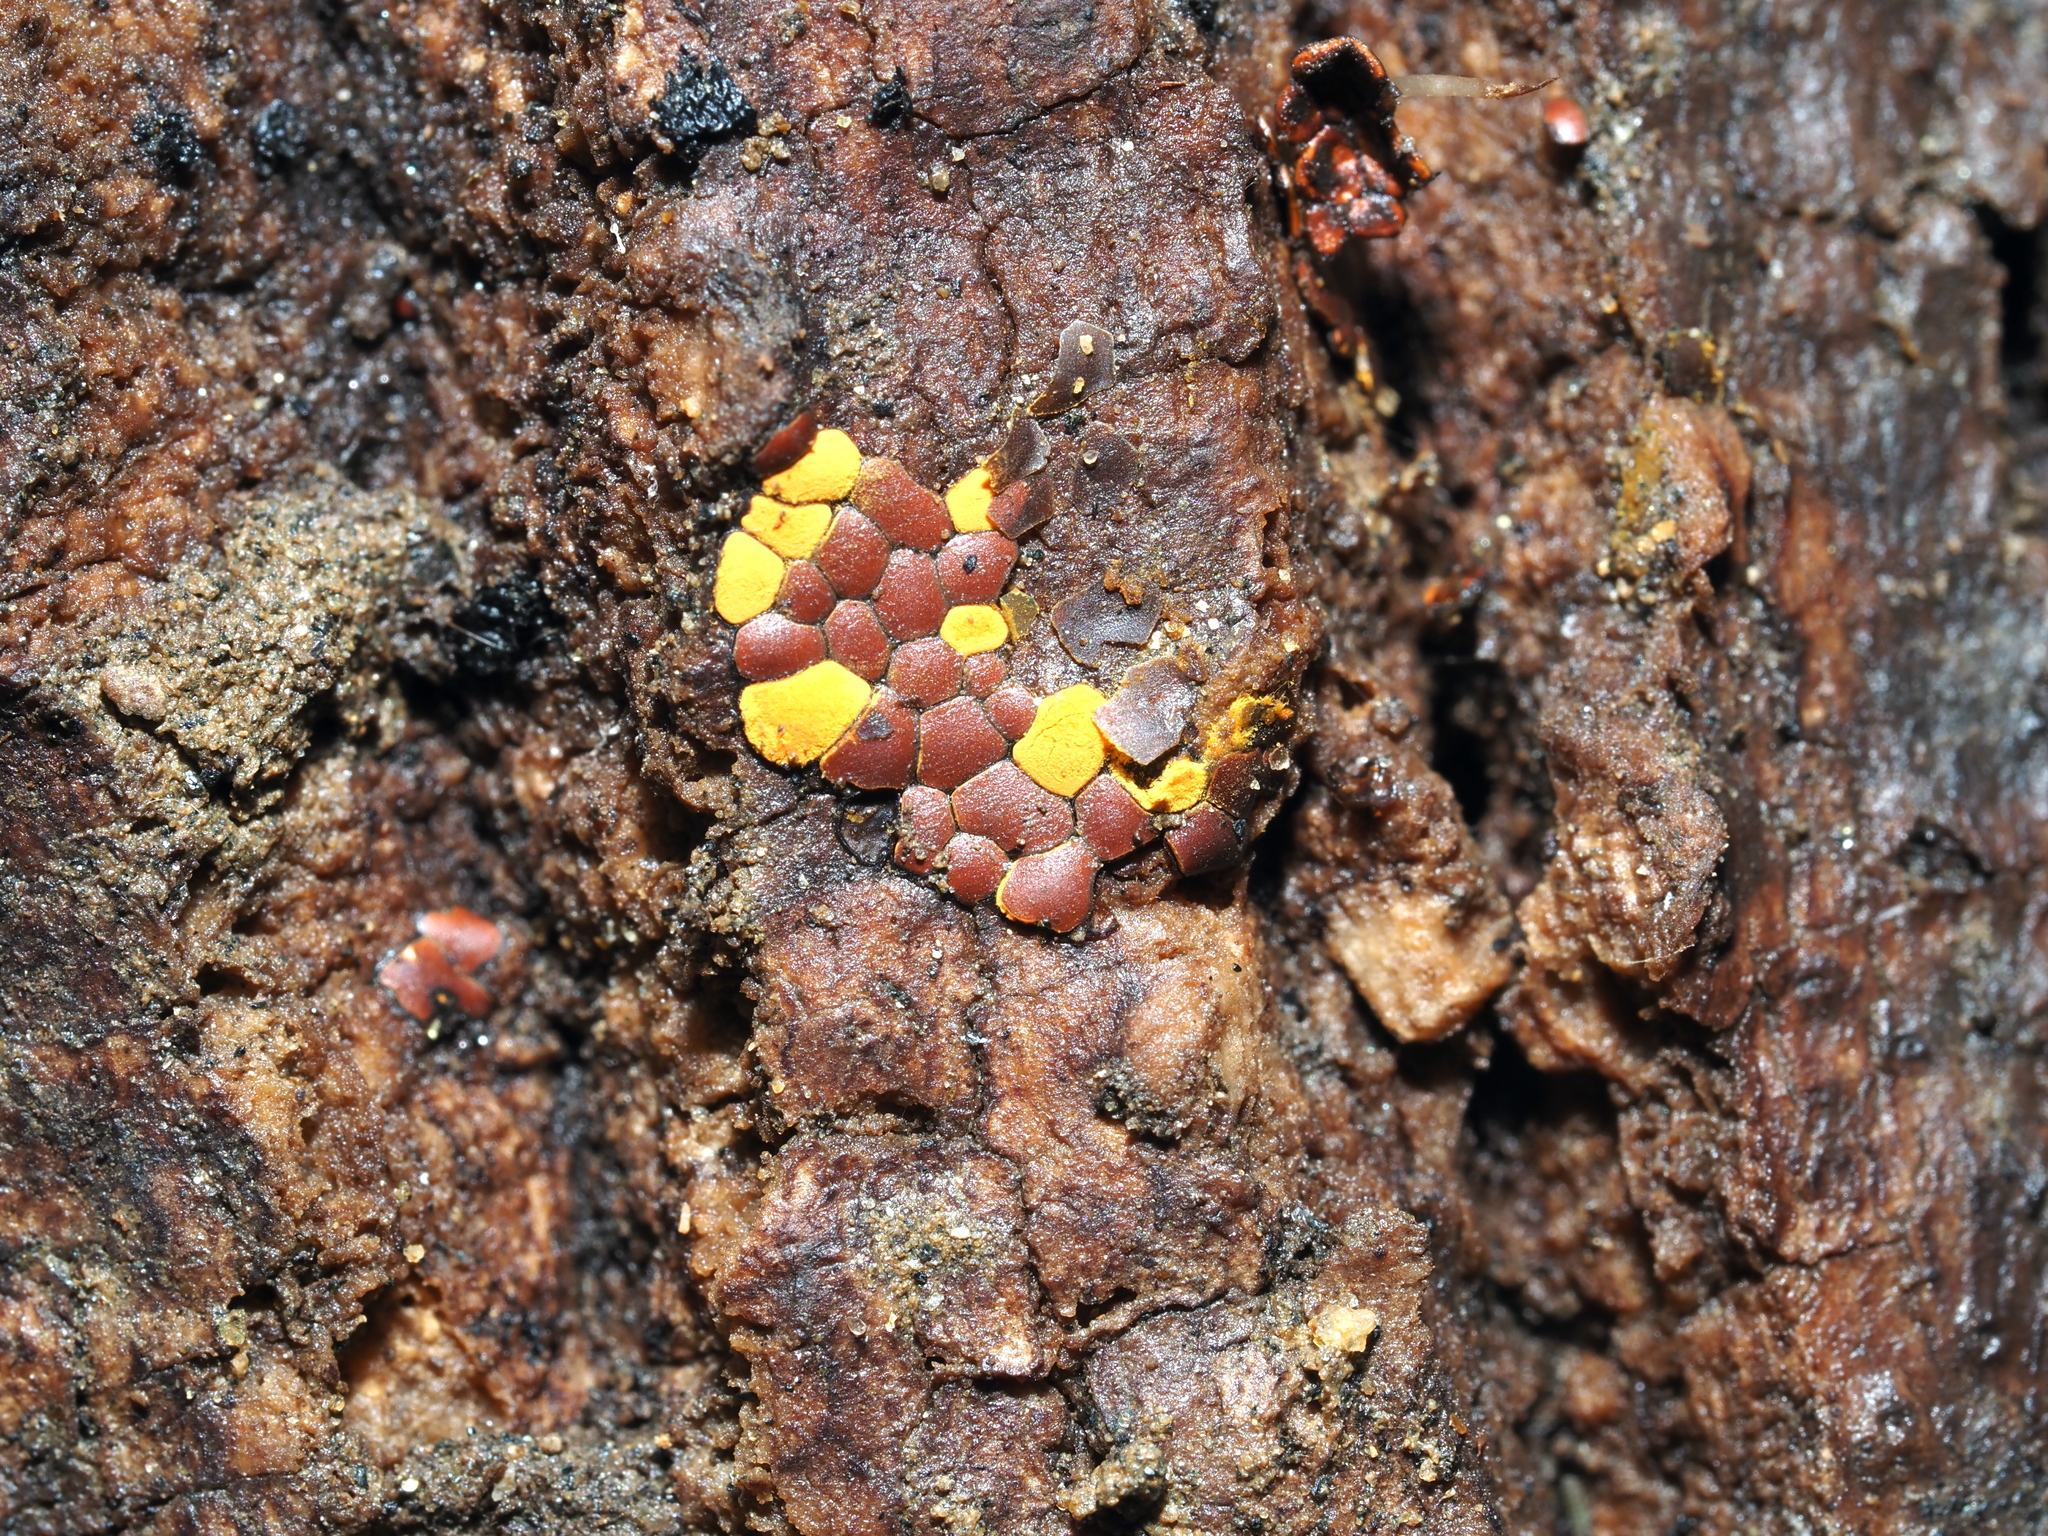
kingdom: Protozoa
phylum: Mycetozoa
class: Myxomycetes
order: Trichiales
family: Trichiaceae
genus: Perichaena
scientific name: Perichaena depressa
